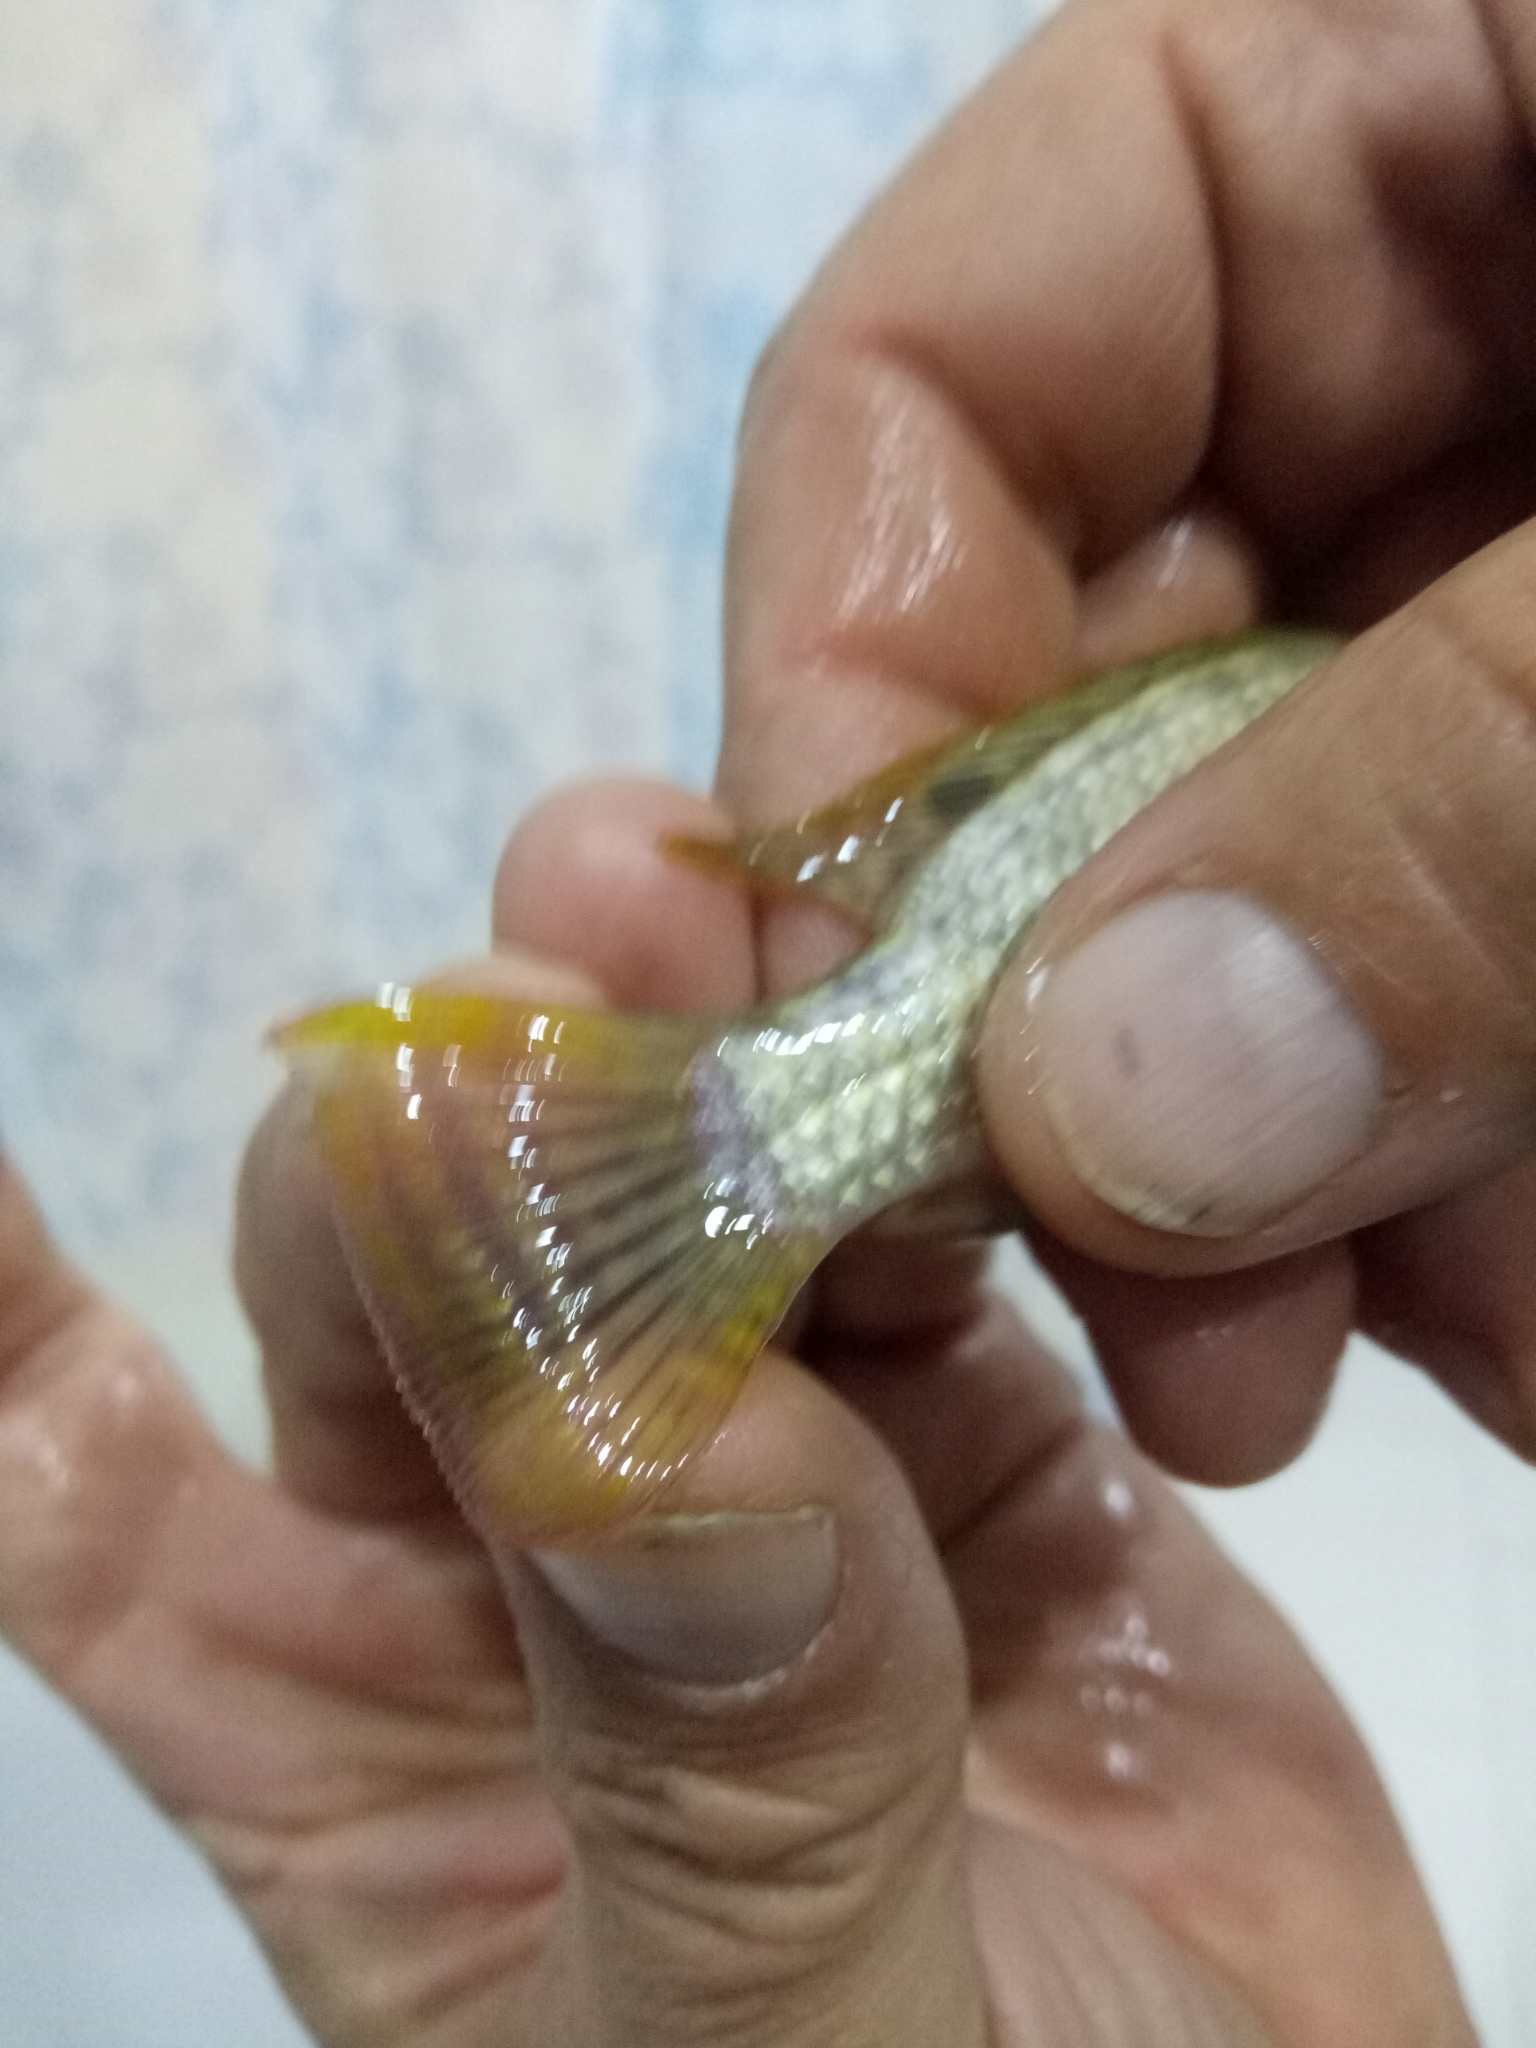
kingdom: Animalia
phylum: Chordata
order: Perciformes
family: Cichlidae
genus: Coptodon
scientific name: Coptodon zillii
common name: Redbelly tilapia
